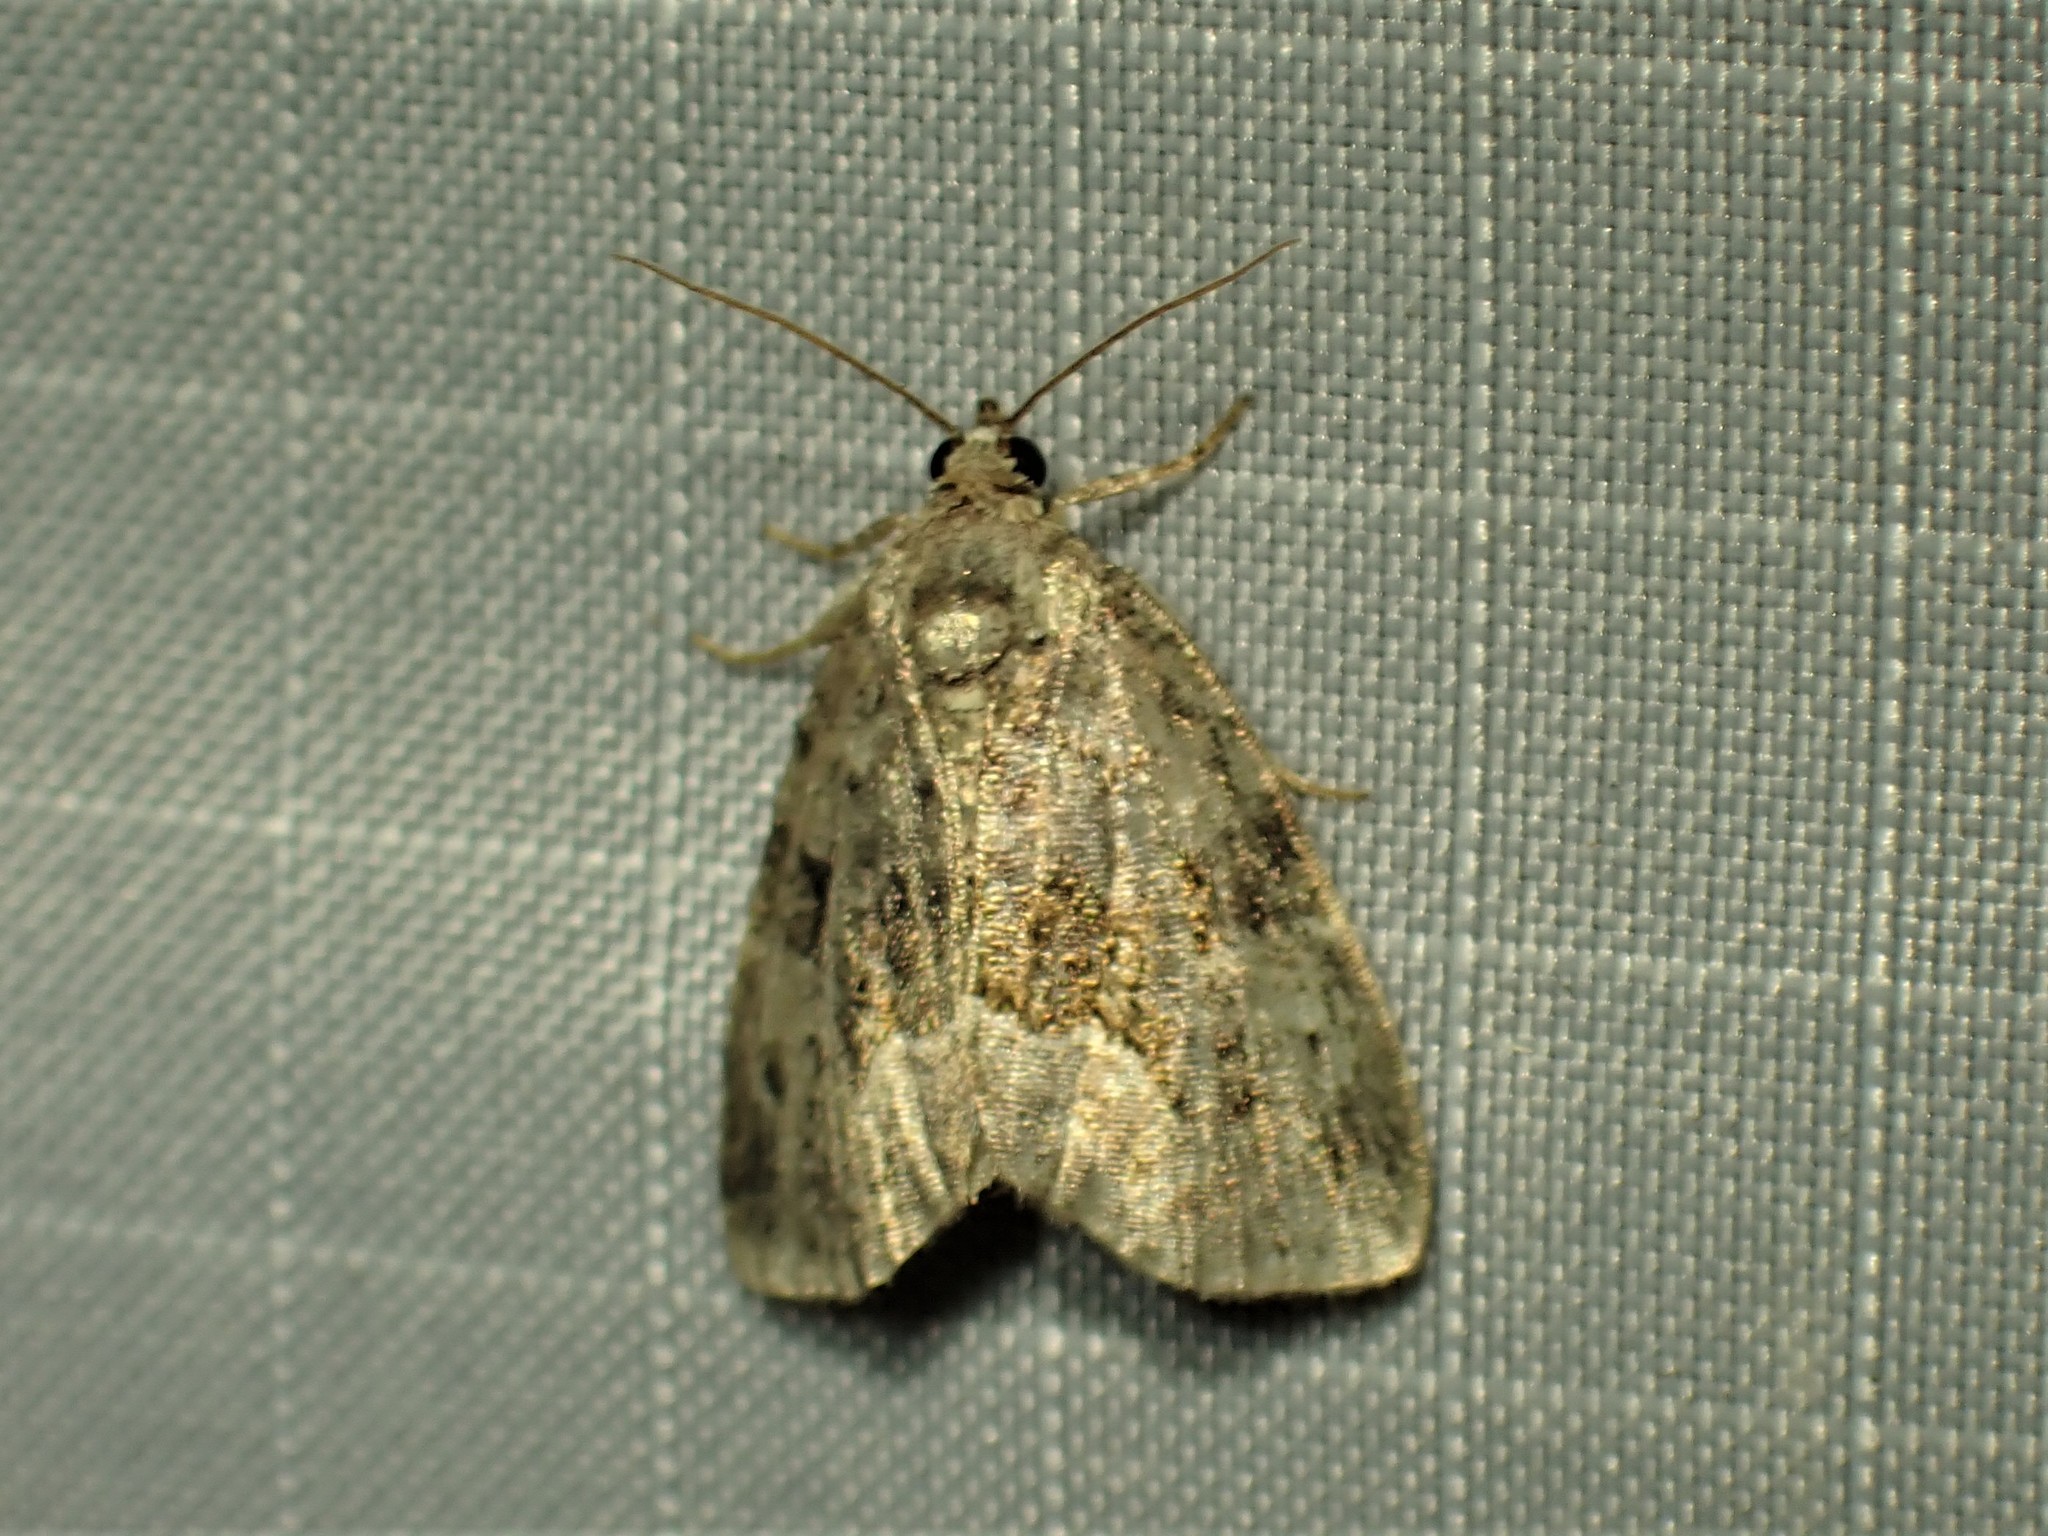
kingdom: Animalia
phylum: Arthropoda
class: Insecta
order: Lepidoptera
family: Noctuidae
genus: Protodeltote
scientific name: Protodeltote muscosula
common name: Large mossy glyph
